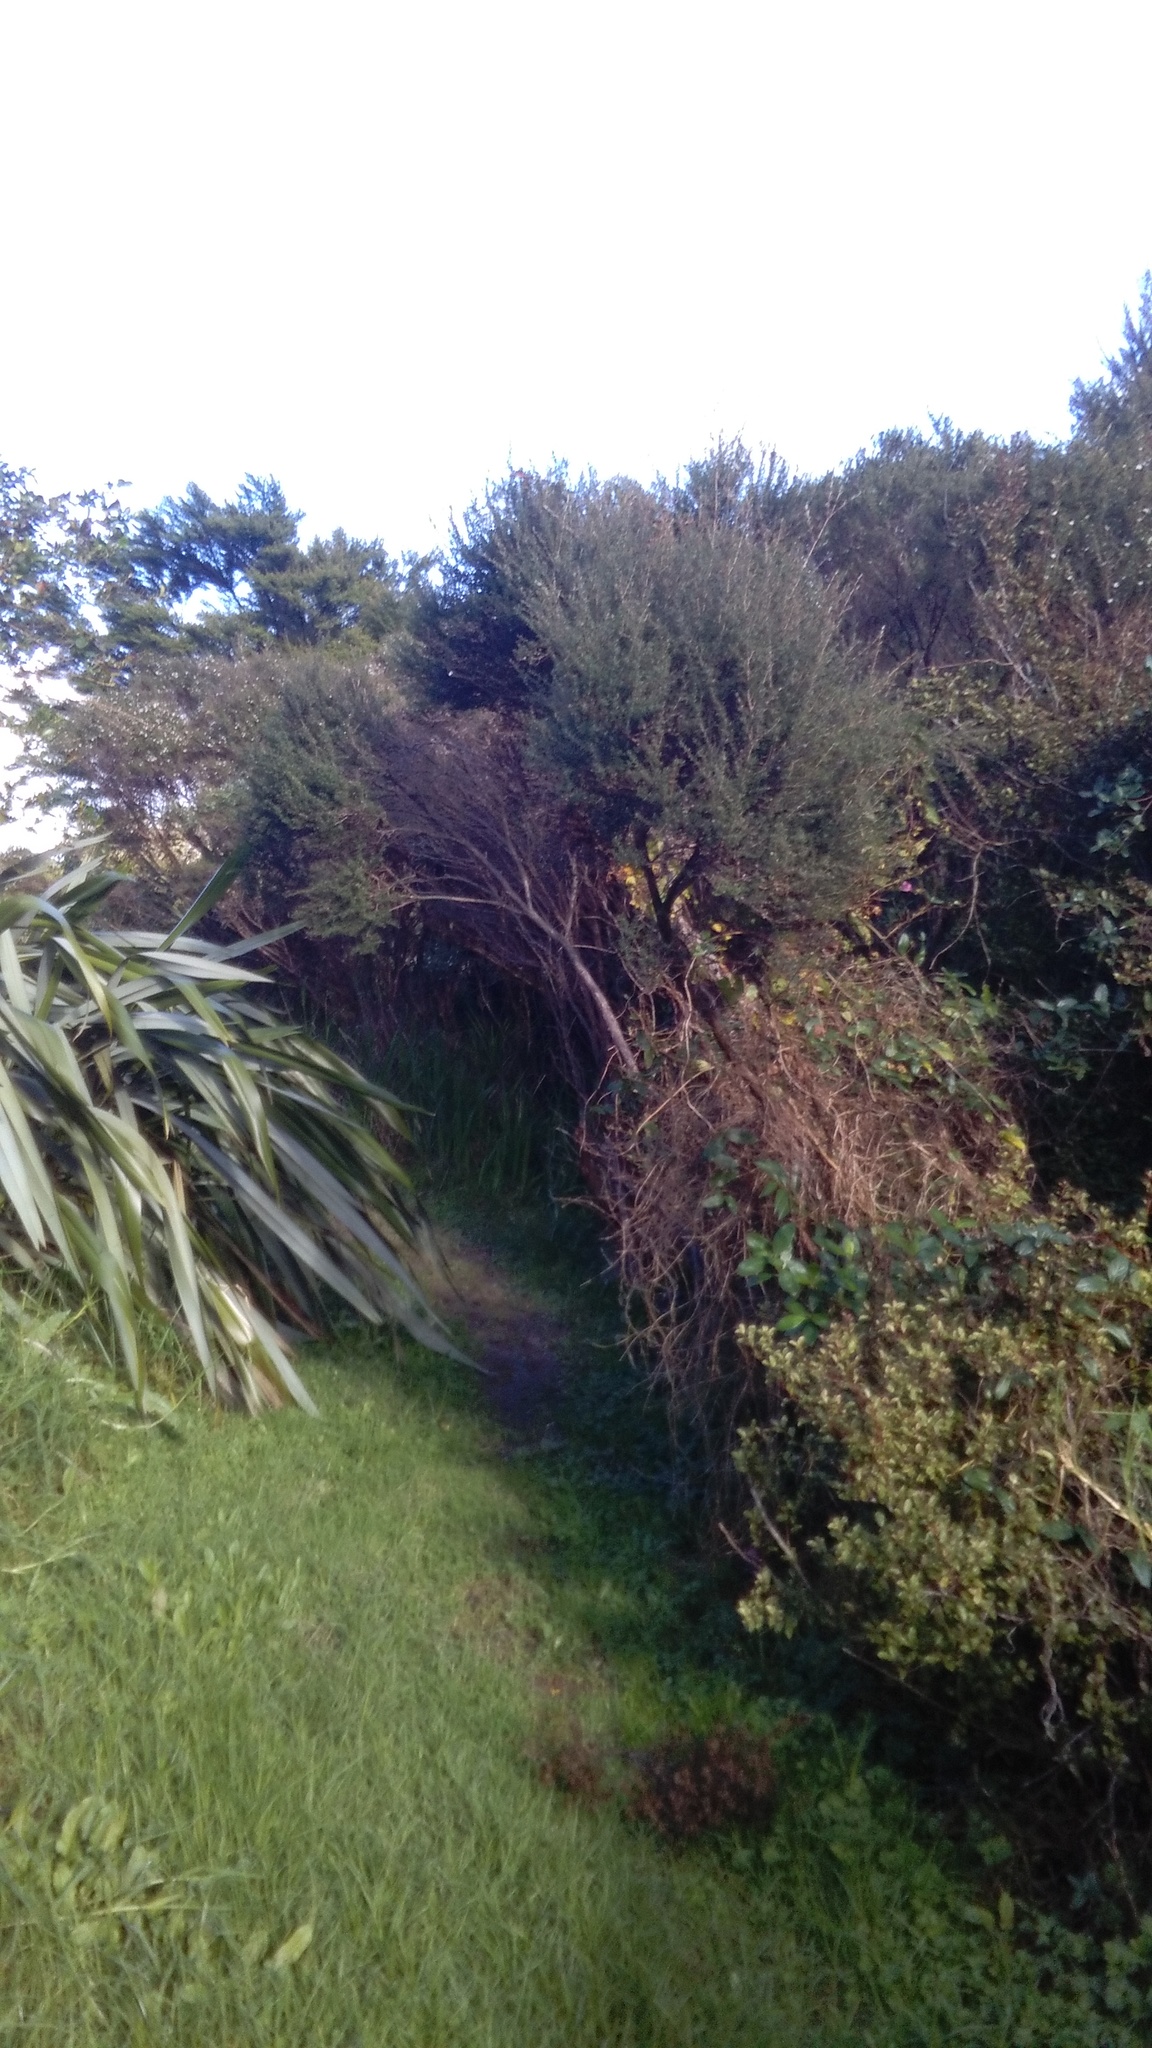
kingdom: Plantae
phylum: Tracheophyta
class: Liliopsida
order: Poales
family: Poaceae
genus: Cenchrus
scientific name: Cenchrus clandestinus
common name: Kikuyugrass
